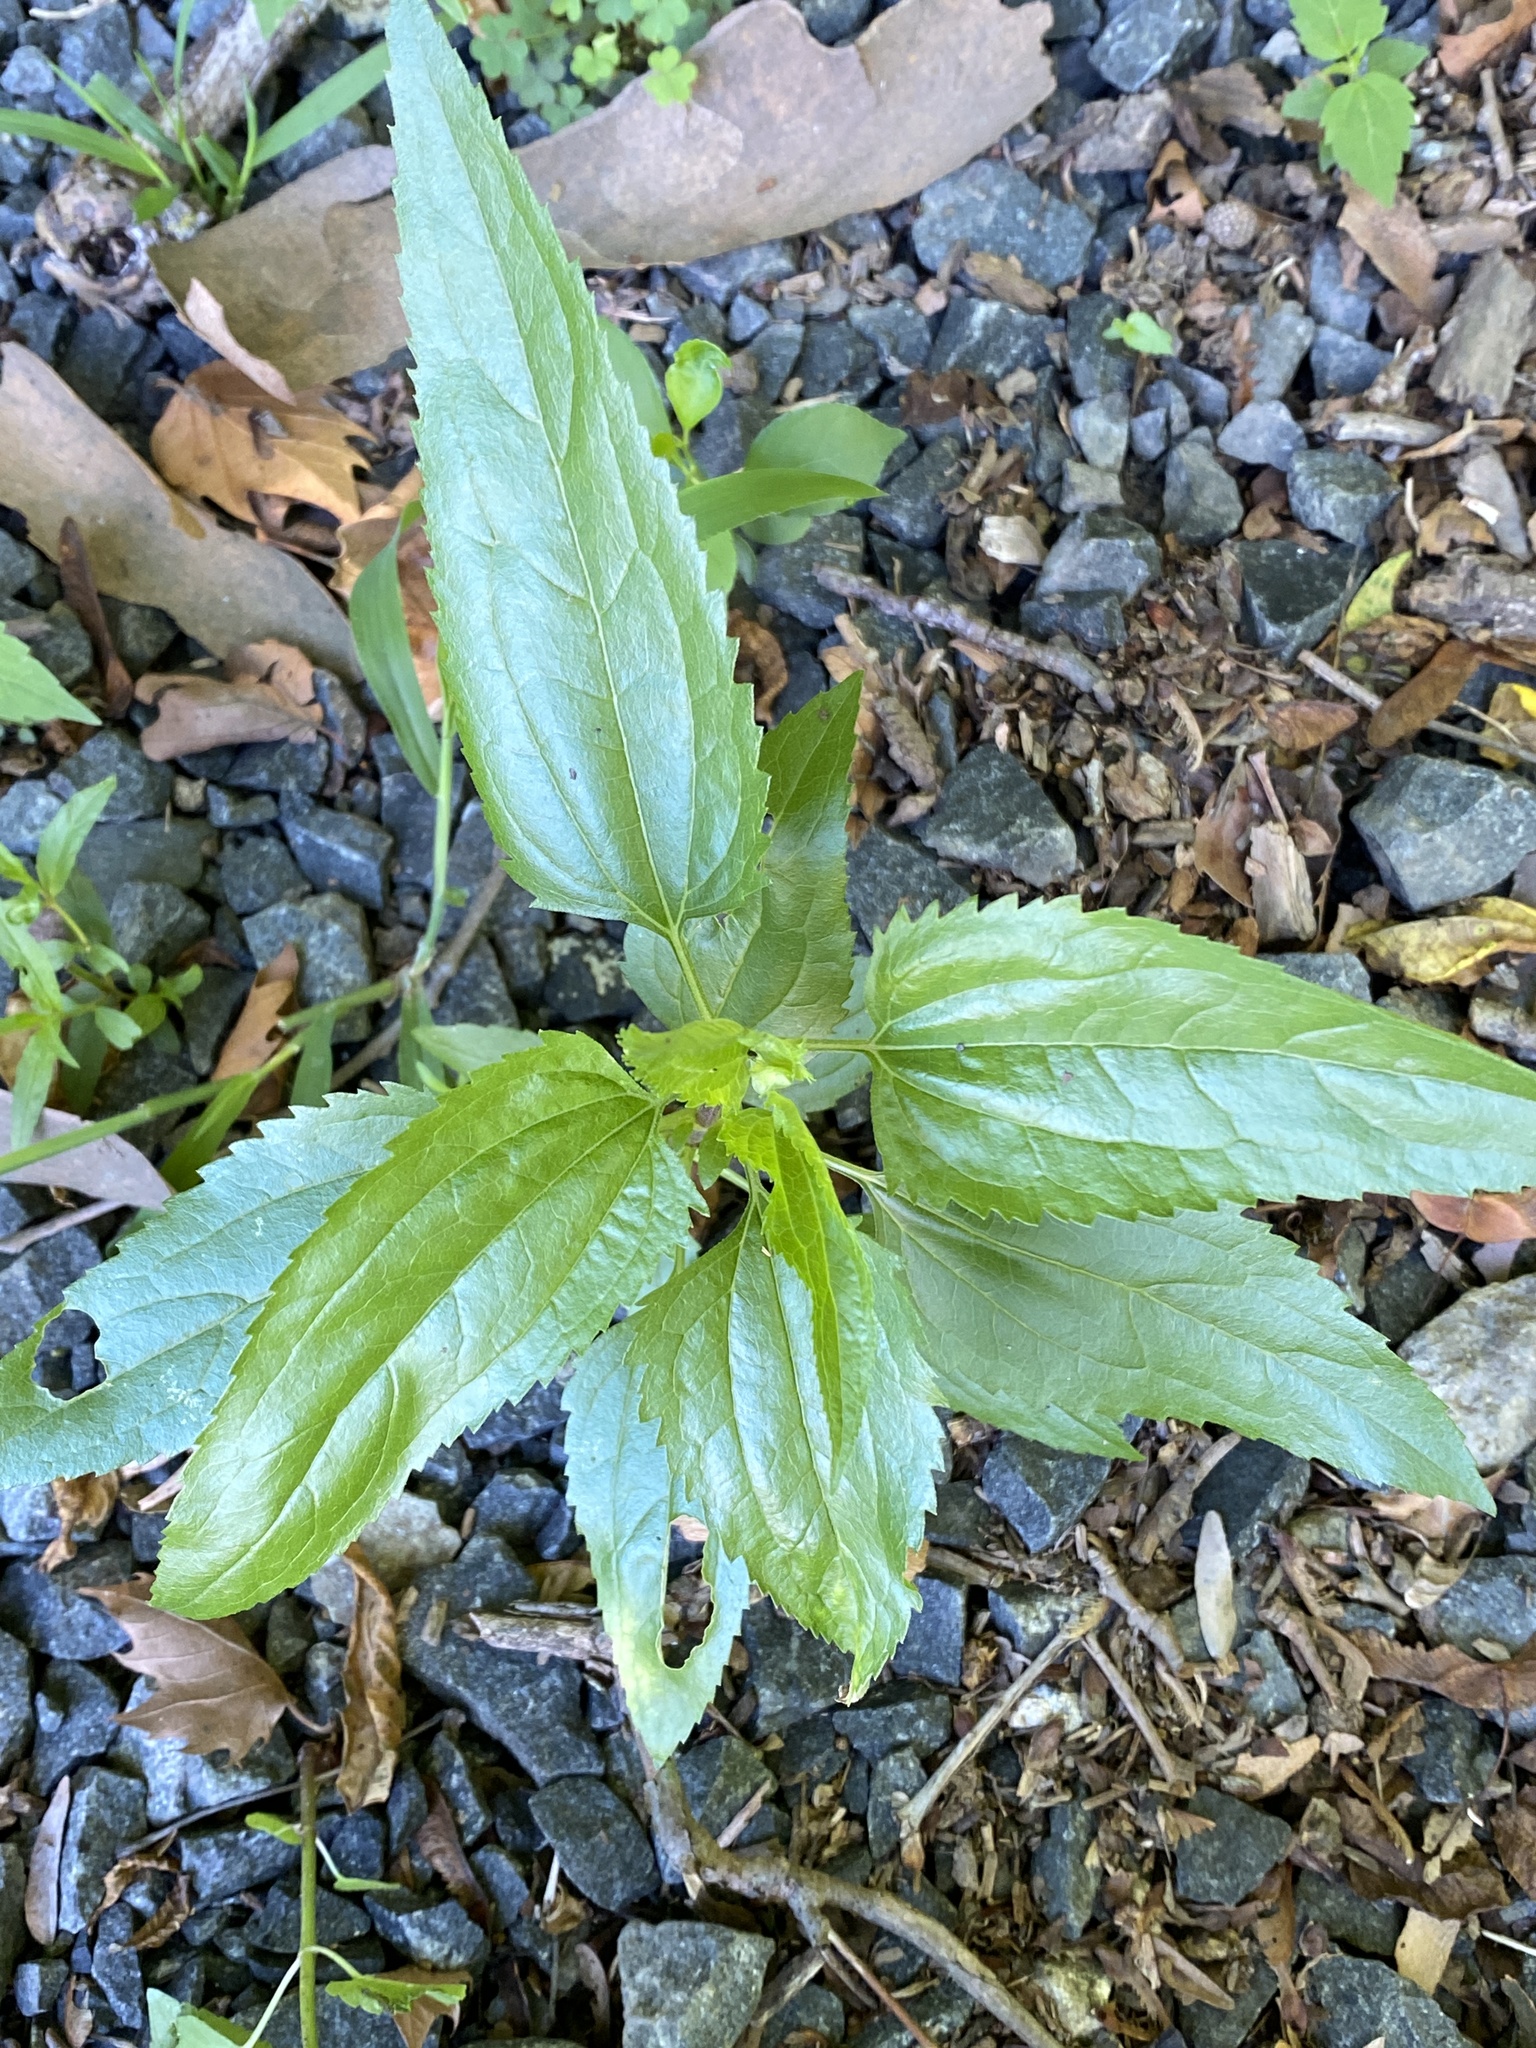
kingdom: Plantae
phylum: Tracheophyta
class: Magnoliopsida
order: Asterales
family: Asteraceae
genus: Eupatorium
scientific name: Eupatorium serotinum
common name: Late boneset
